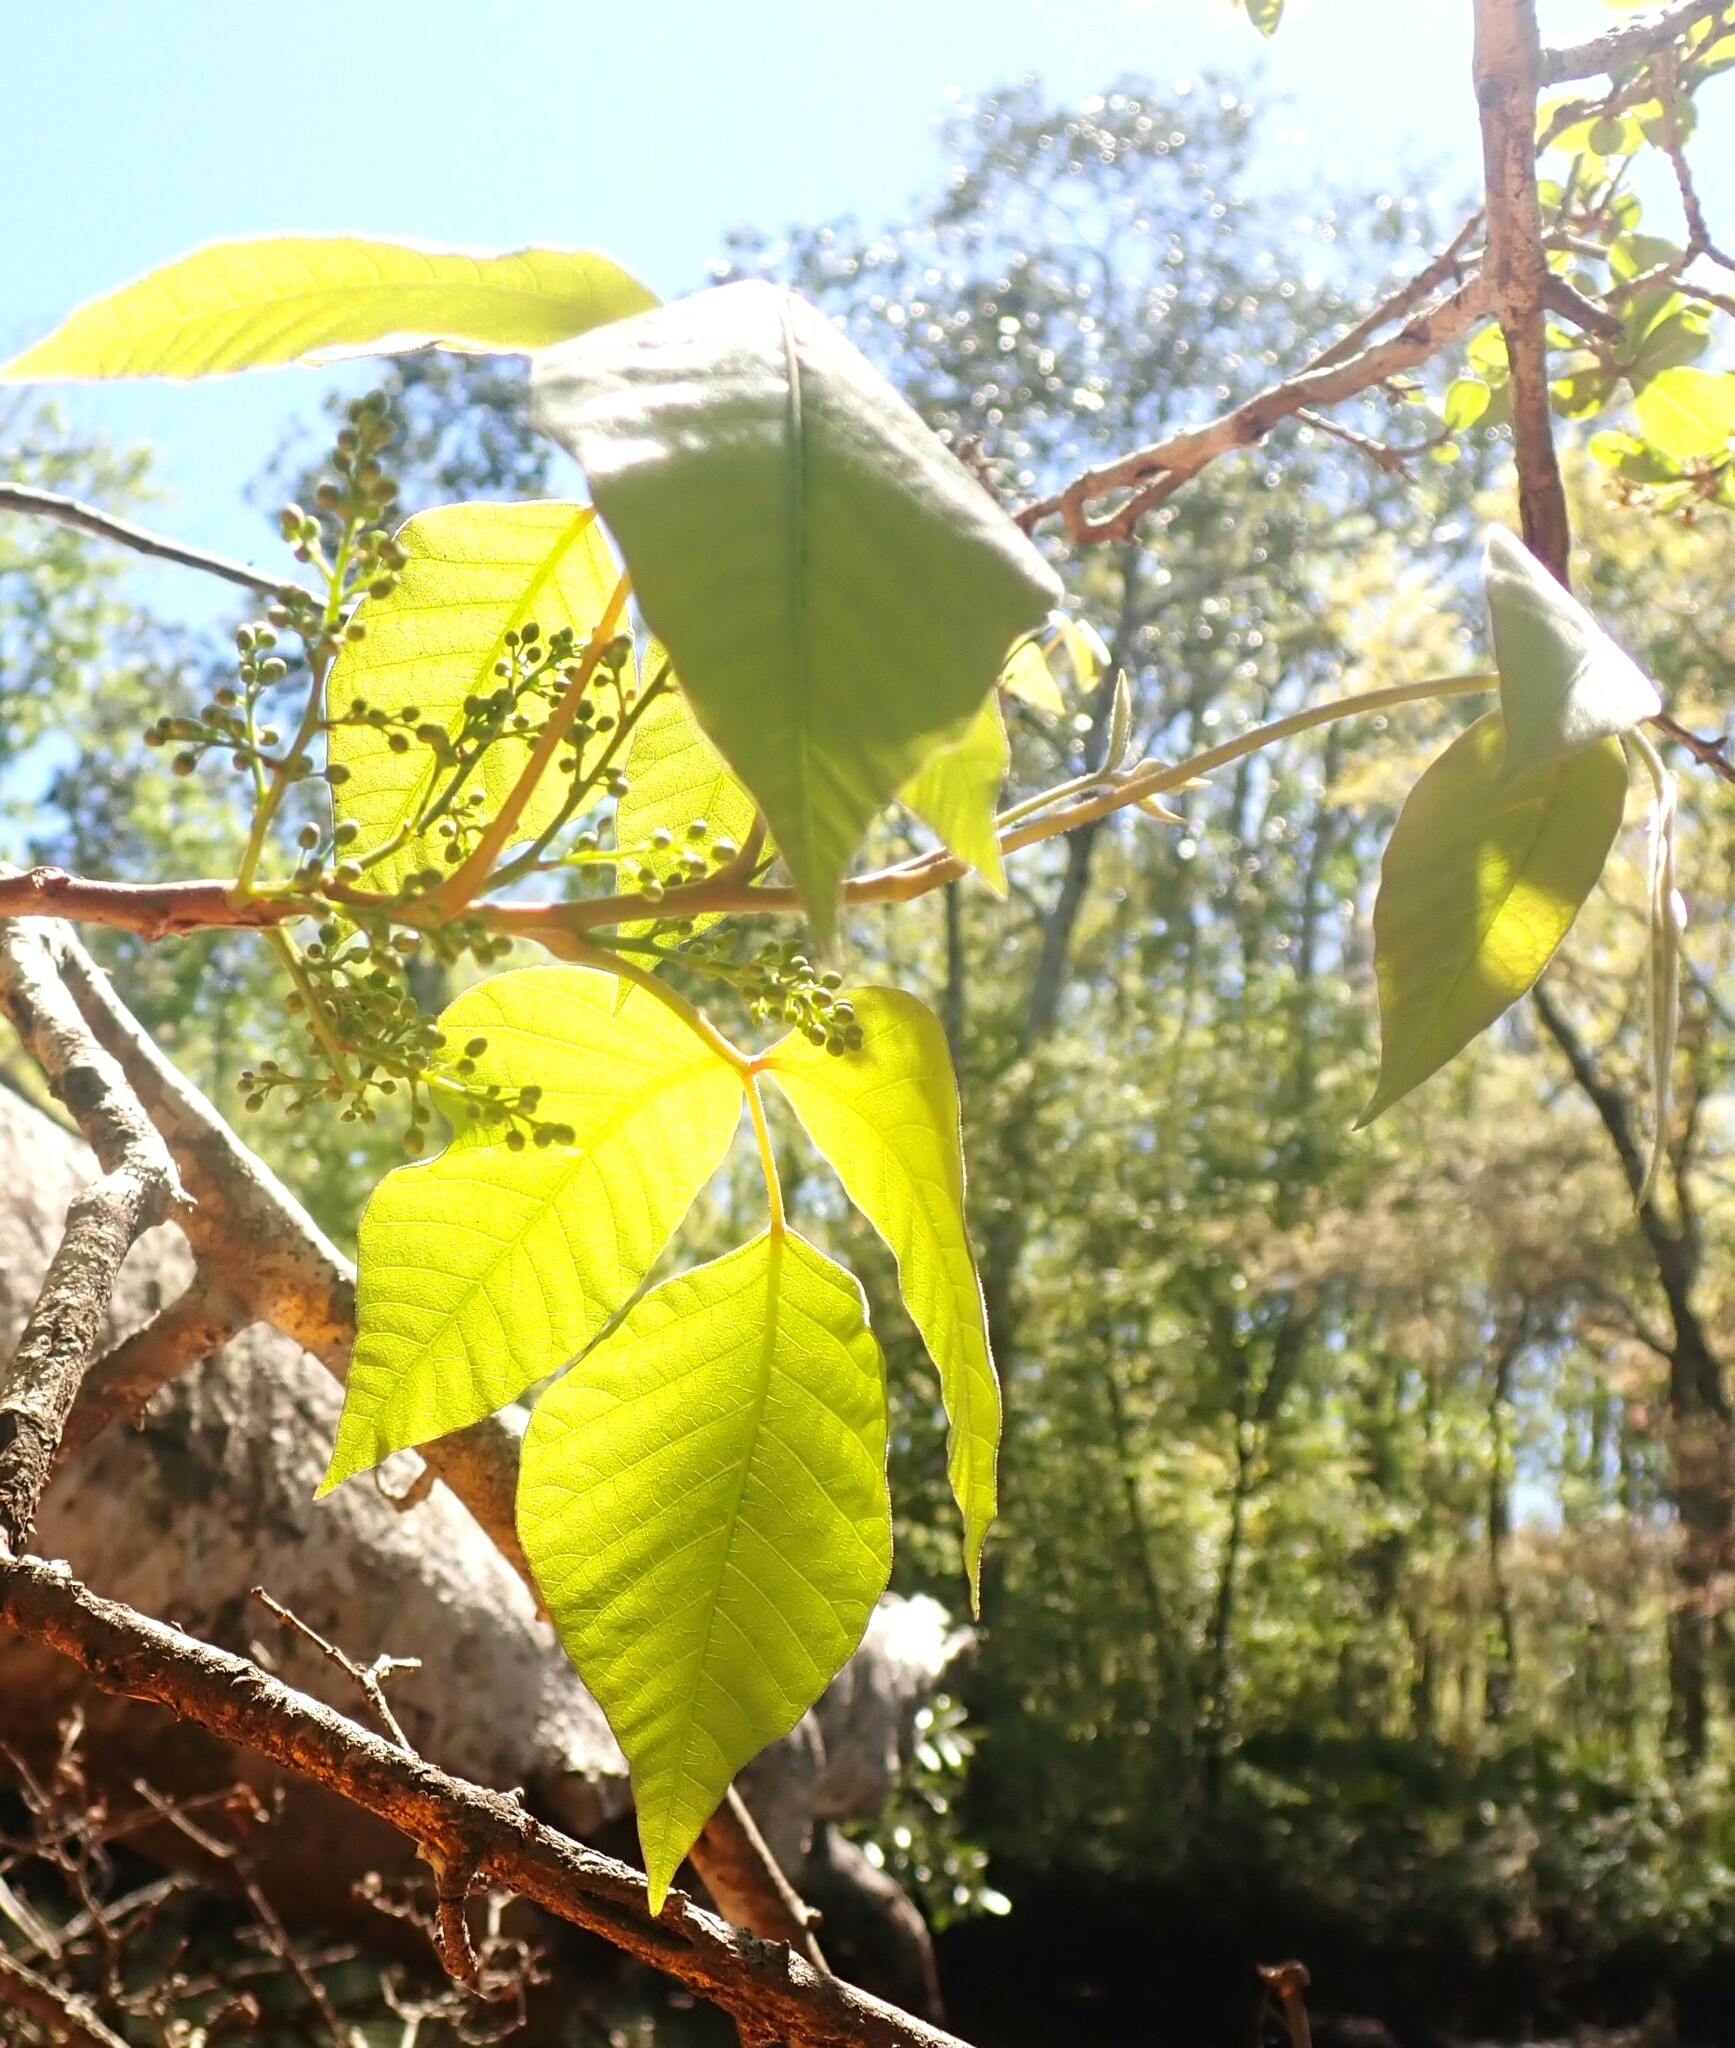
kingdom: Plantae
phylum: Tracheophyta
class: Magnoliopsida
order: Sapindales
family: Anacardiaceae
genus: Toxicodendron
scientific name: Toxicodendron radicans
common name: Poison ivy
